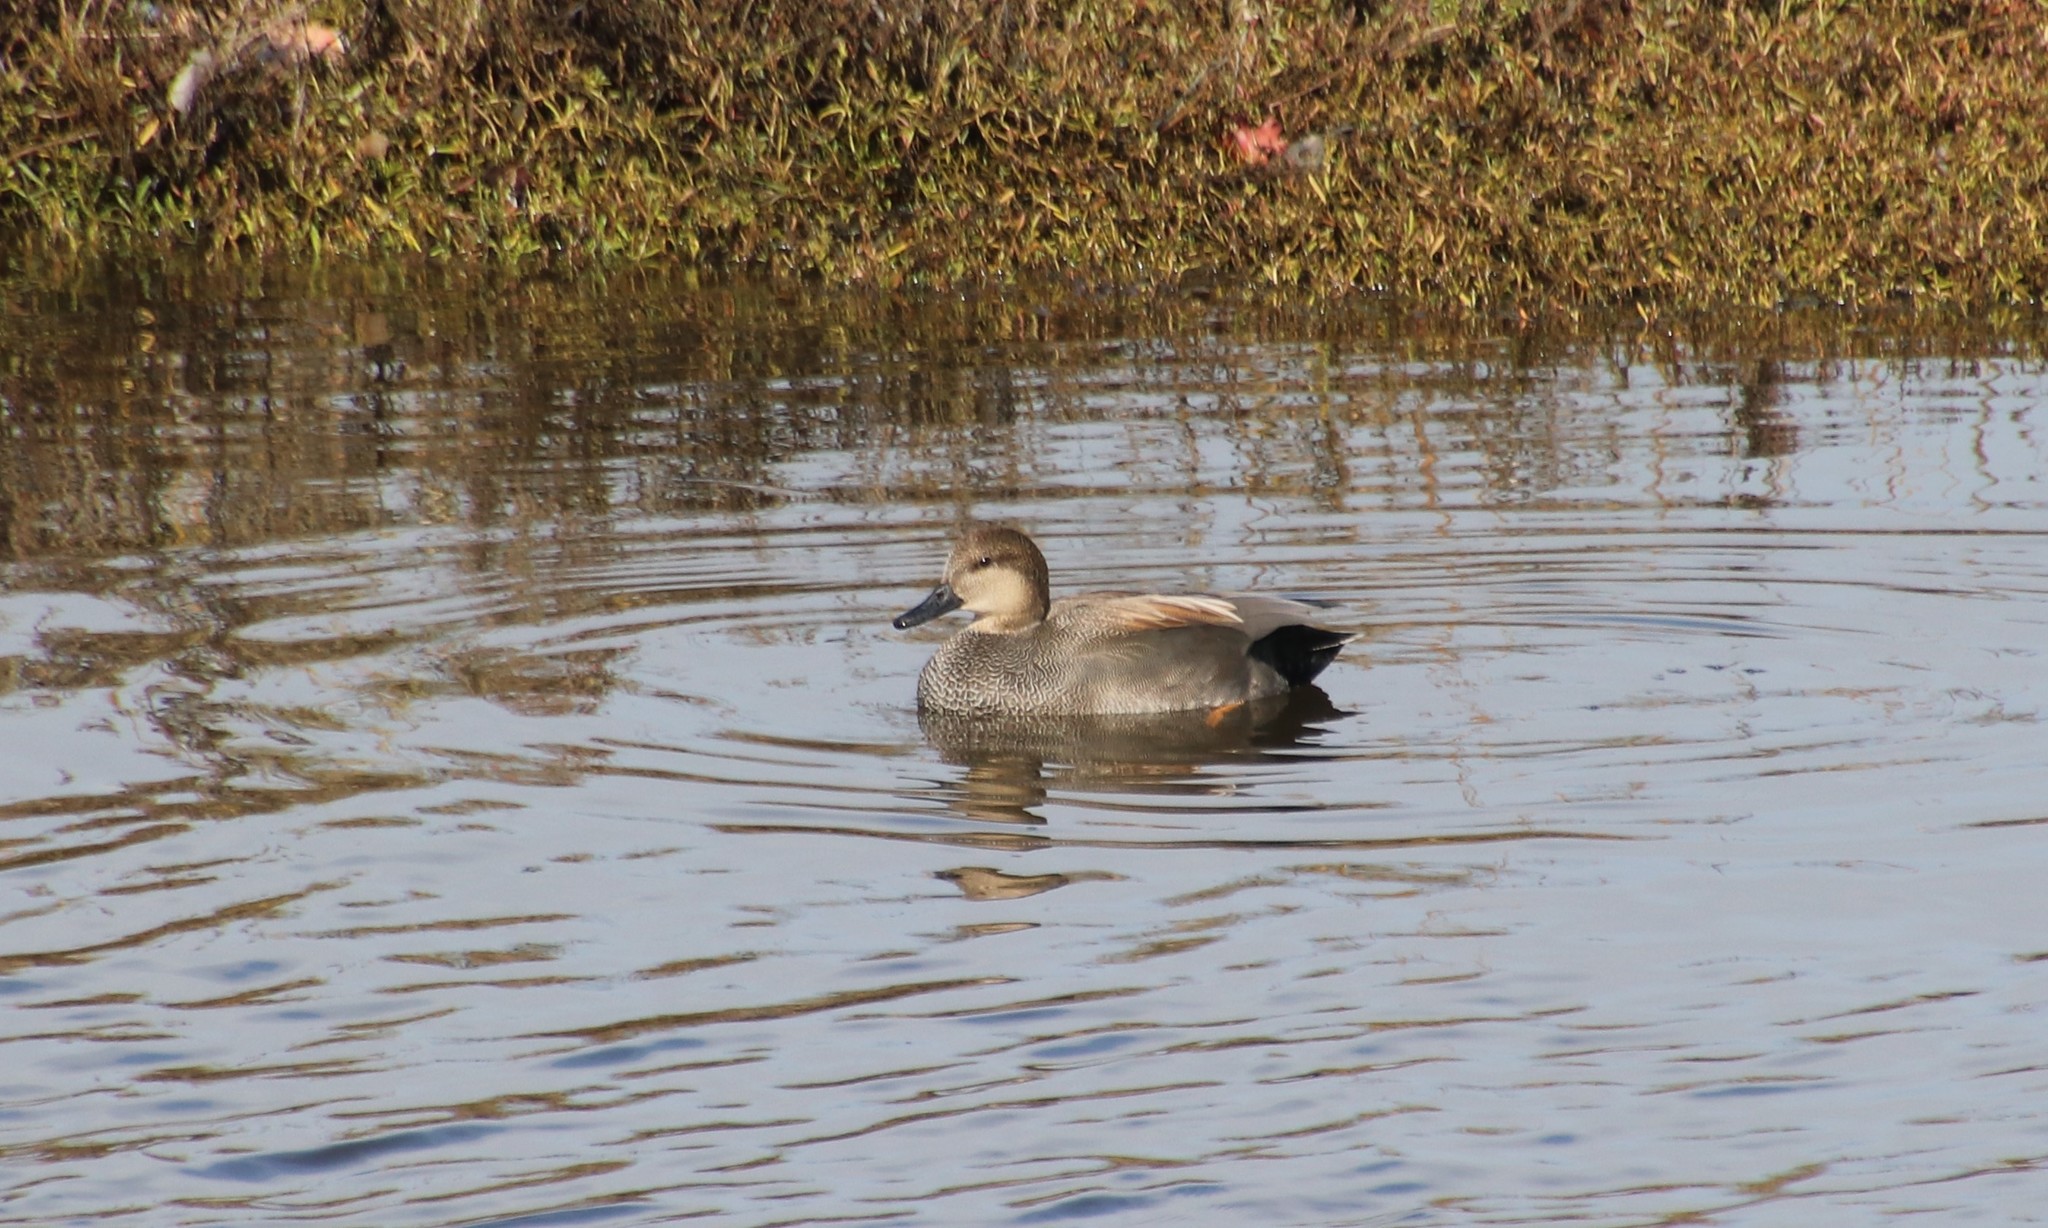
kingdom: Animalia
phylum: Chordata
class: Aves
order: Anseriformes
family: Anatidae
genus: Mareca
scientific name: Mareca strepera
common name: Gadwall
